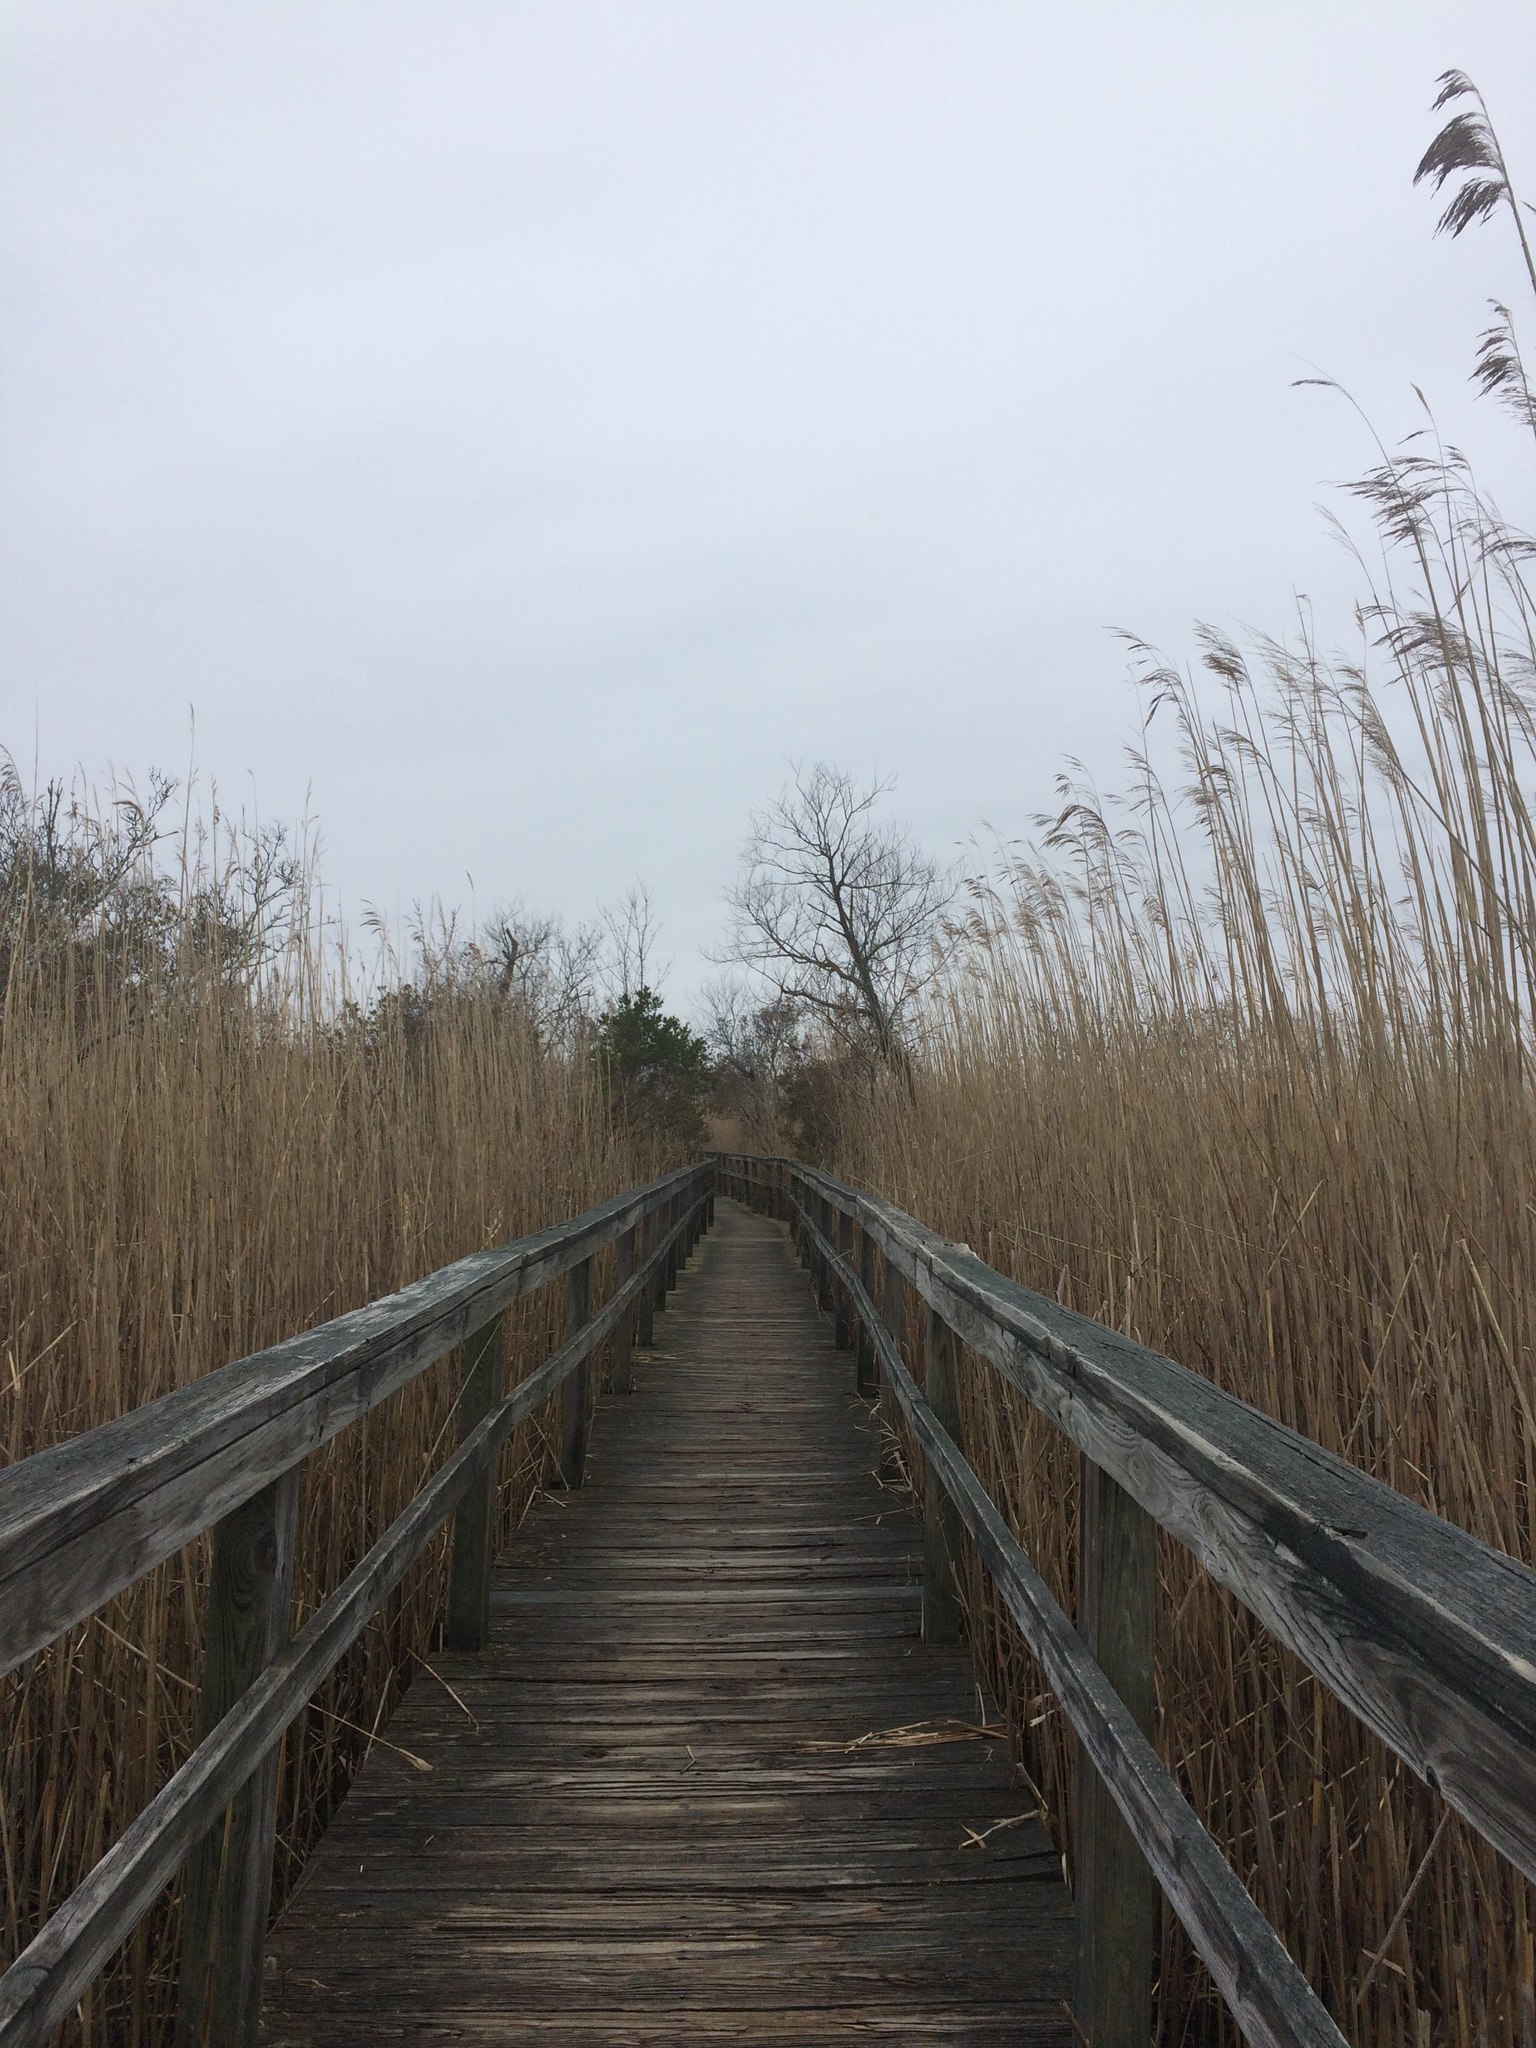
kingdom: Plantae
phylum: Tracheophyta
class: Liliopsida
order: Poales
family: Poaceae
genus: Phragmites
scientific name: Phragmites australis
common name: Common reed
